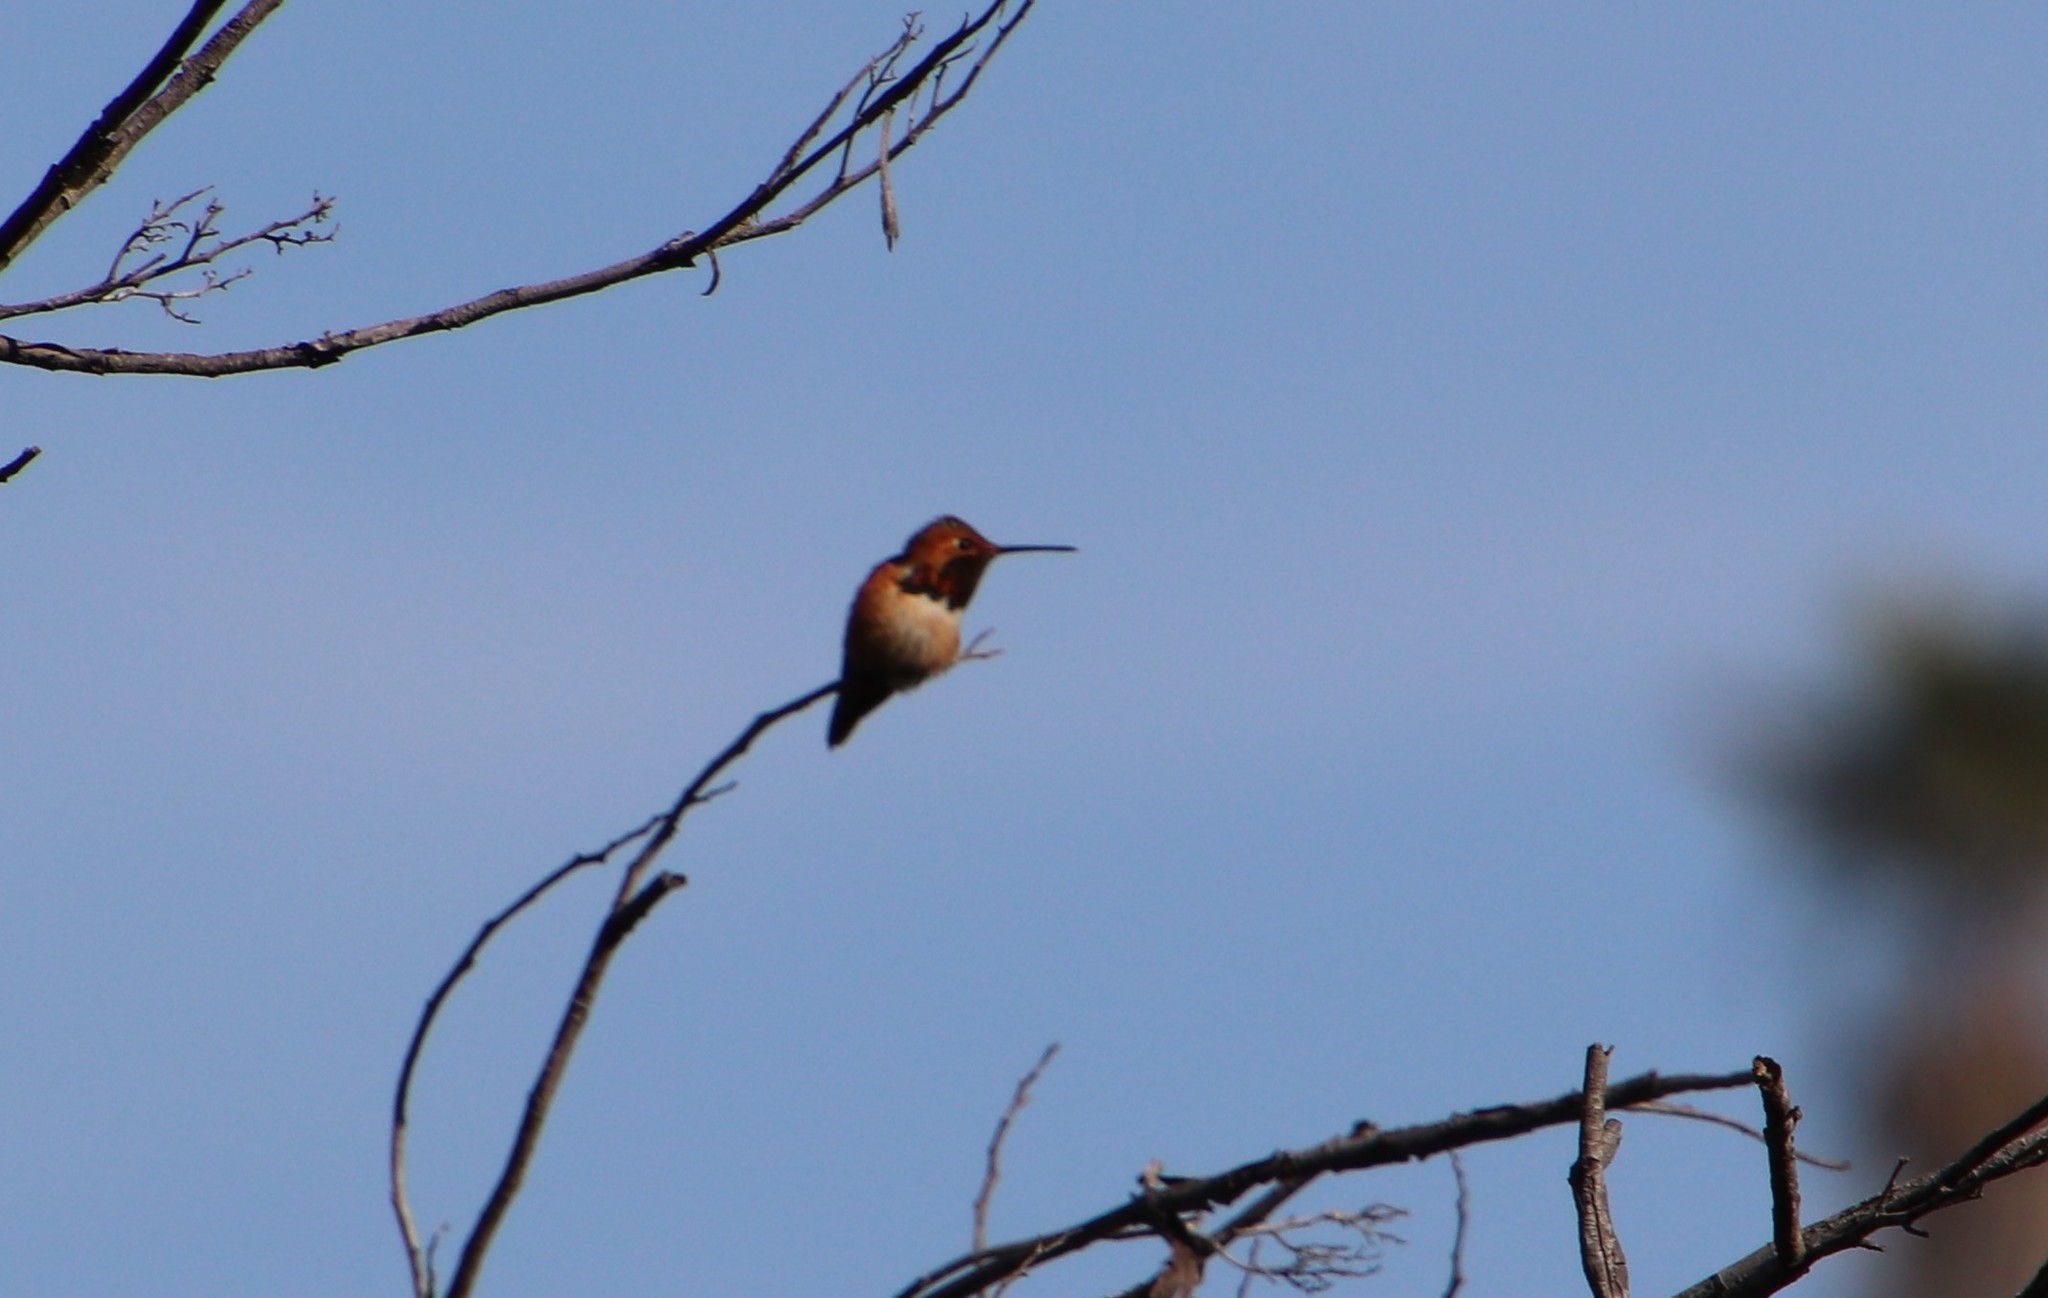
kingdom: Animalia
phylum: Chordata
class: Aves
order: Apodiformes
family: Trochilidae
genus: Selasphorus
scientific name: Selasphorus
